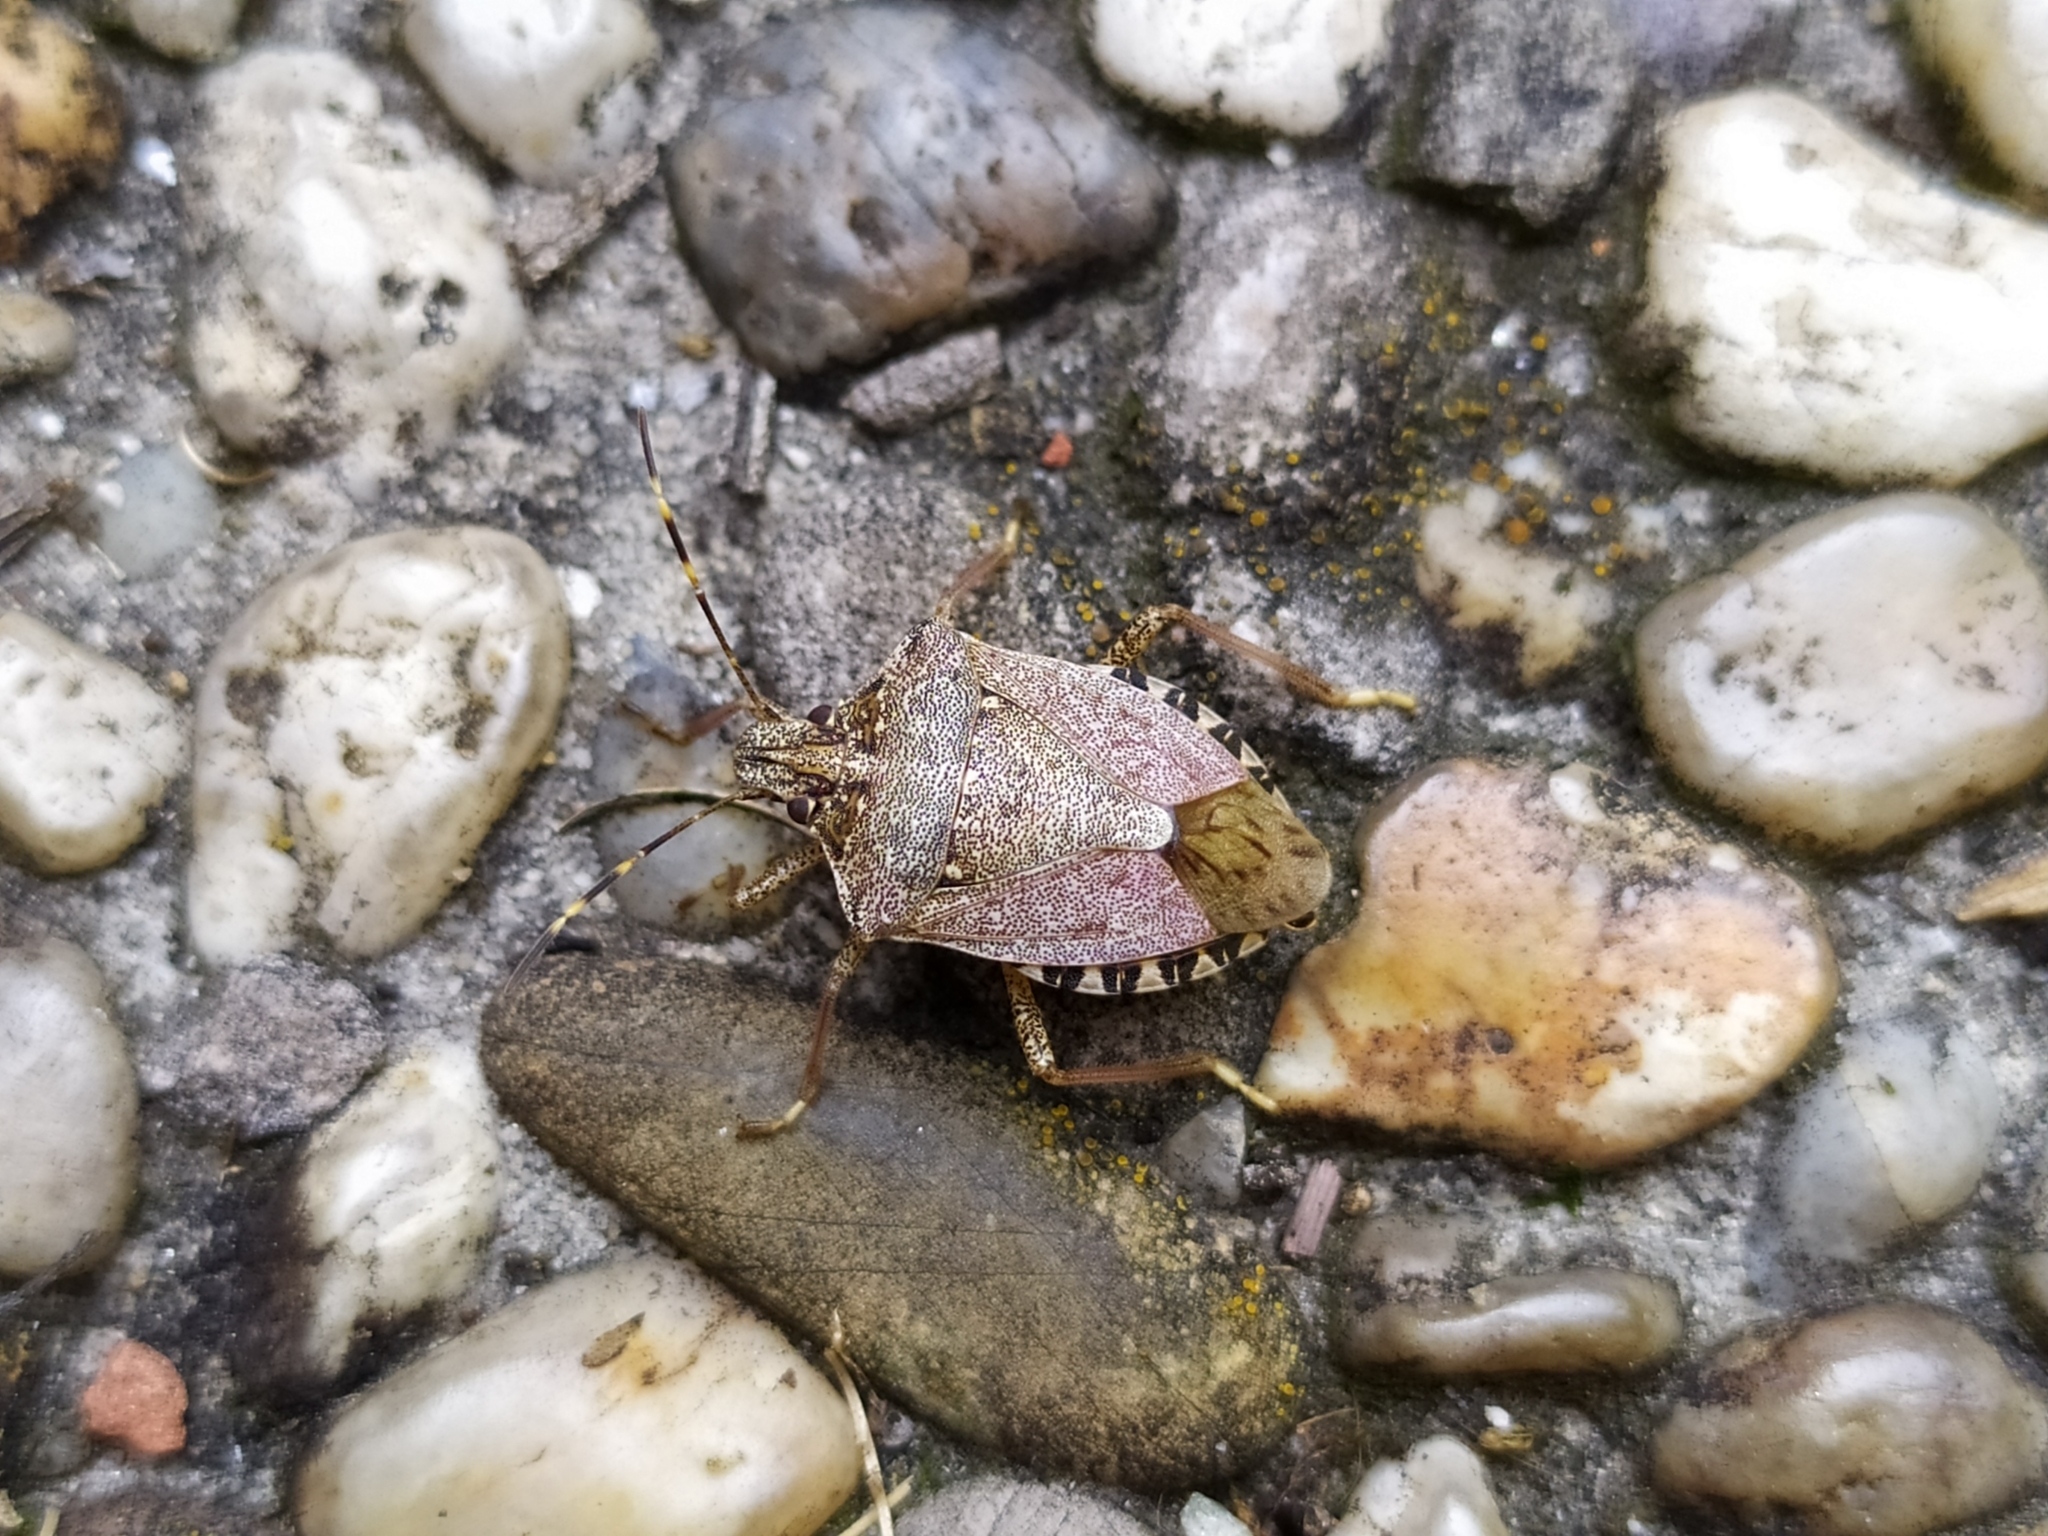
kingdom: Animalia
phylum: Arthropoda
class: Insecta
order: Hemiptera
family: Pentatomidae
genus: Halyomorpha
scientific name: Halyomorpha halys
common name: Brown marmorated stink bug
